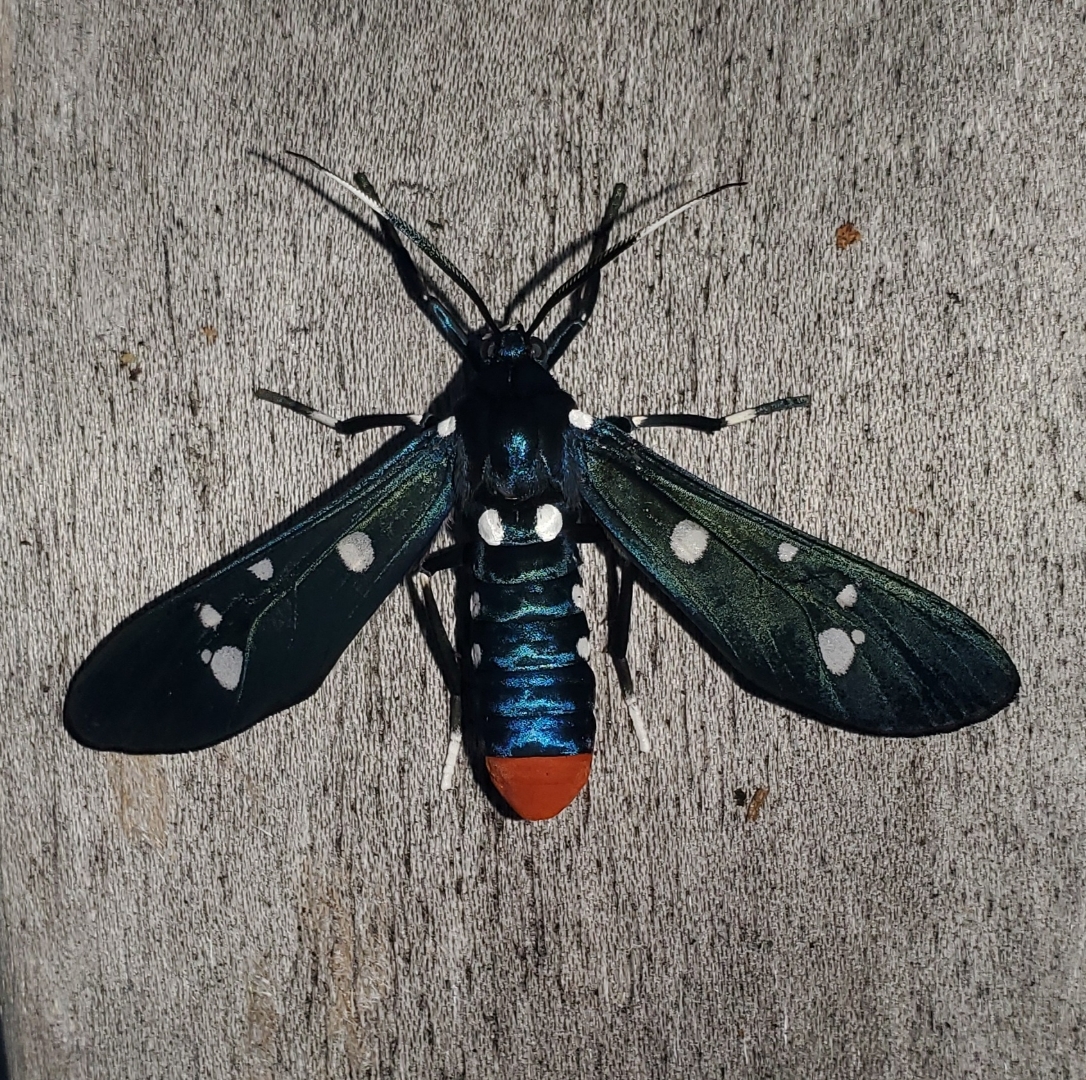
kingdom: Animalia
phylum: Arthropoda
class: Insecta
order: Lepidoptera
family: Erebidae
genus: Syntomeida
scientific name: Syntomeida epilais
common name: Polka-dot wasp moth
